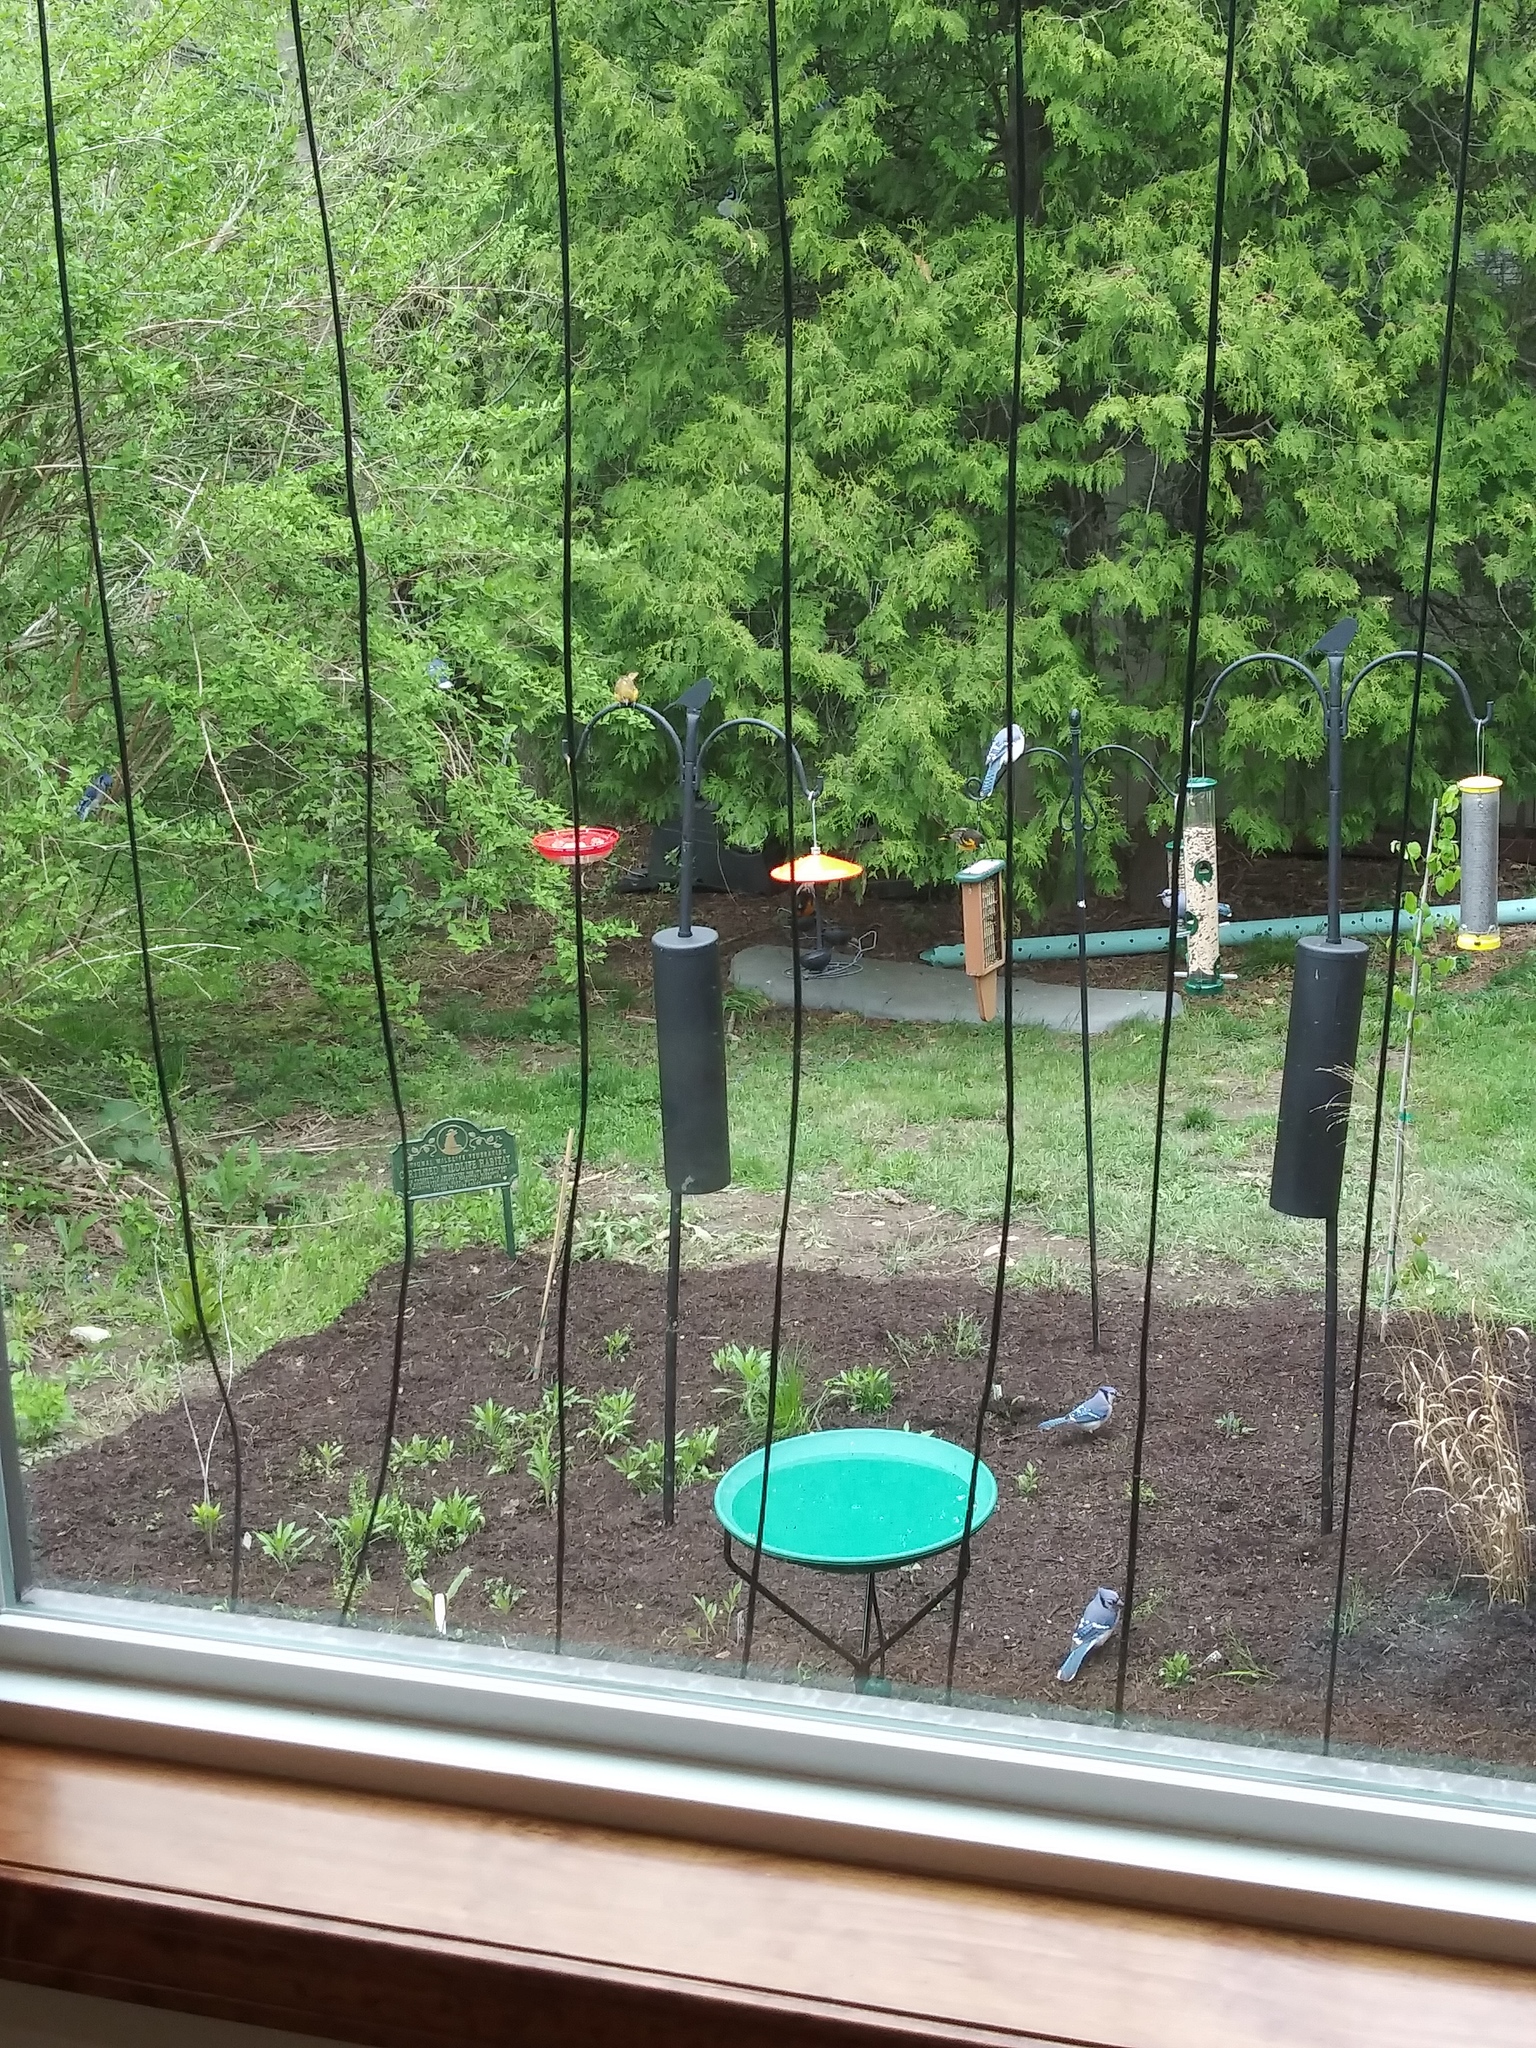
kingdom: Animalia
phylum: Chordata
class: Aves
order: Passeriformes
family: Corvidae
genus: Cyanocitta
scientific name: Cyanocitta cristata
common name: Blue jay
